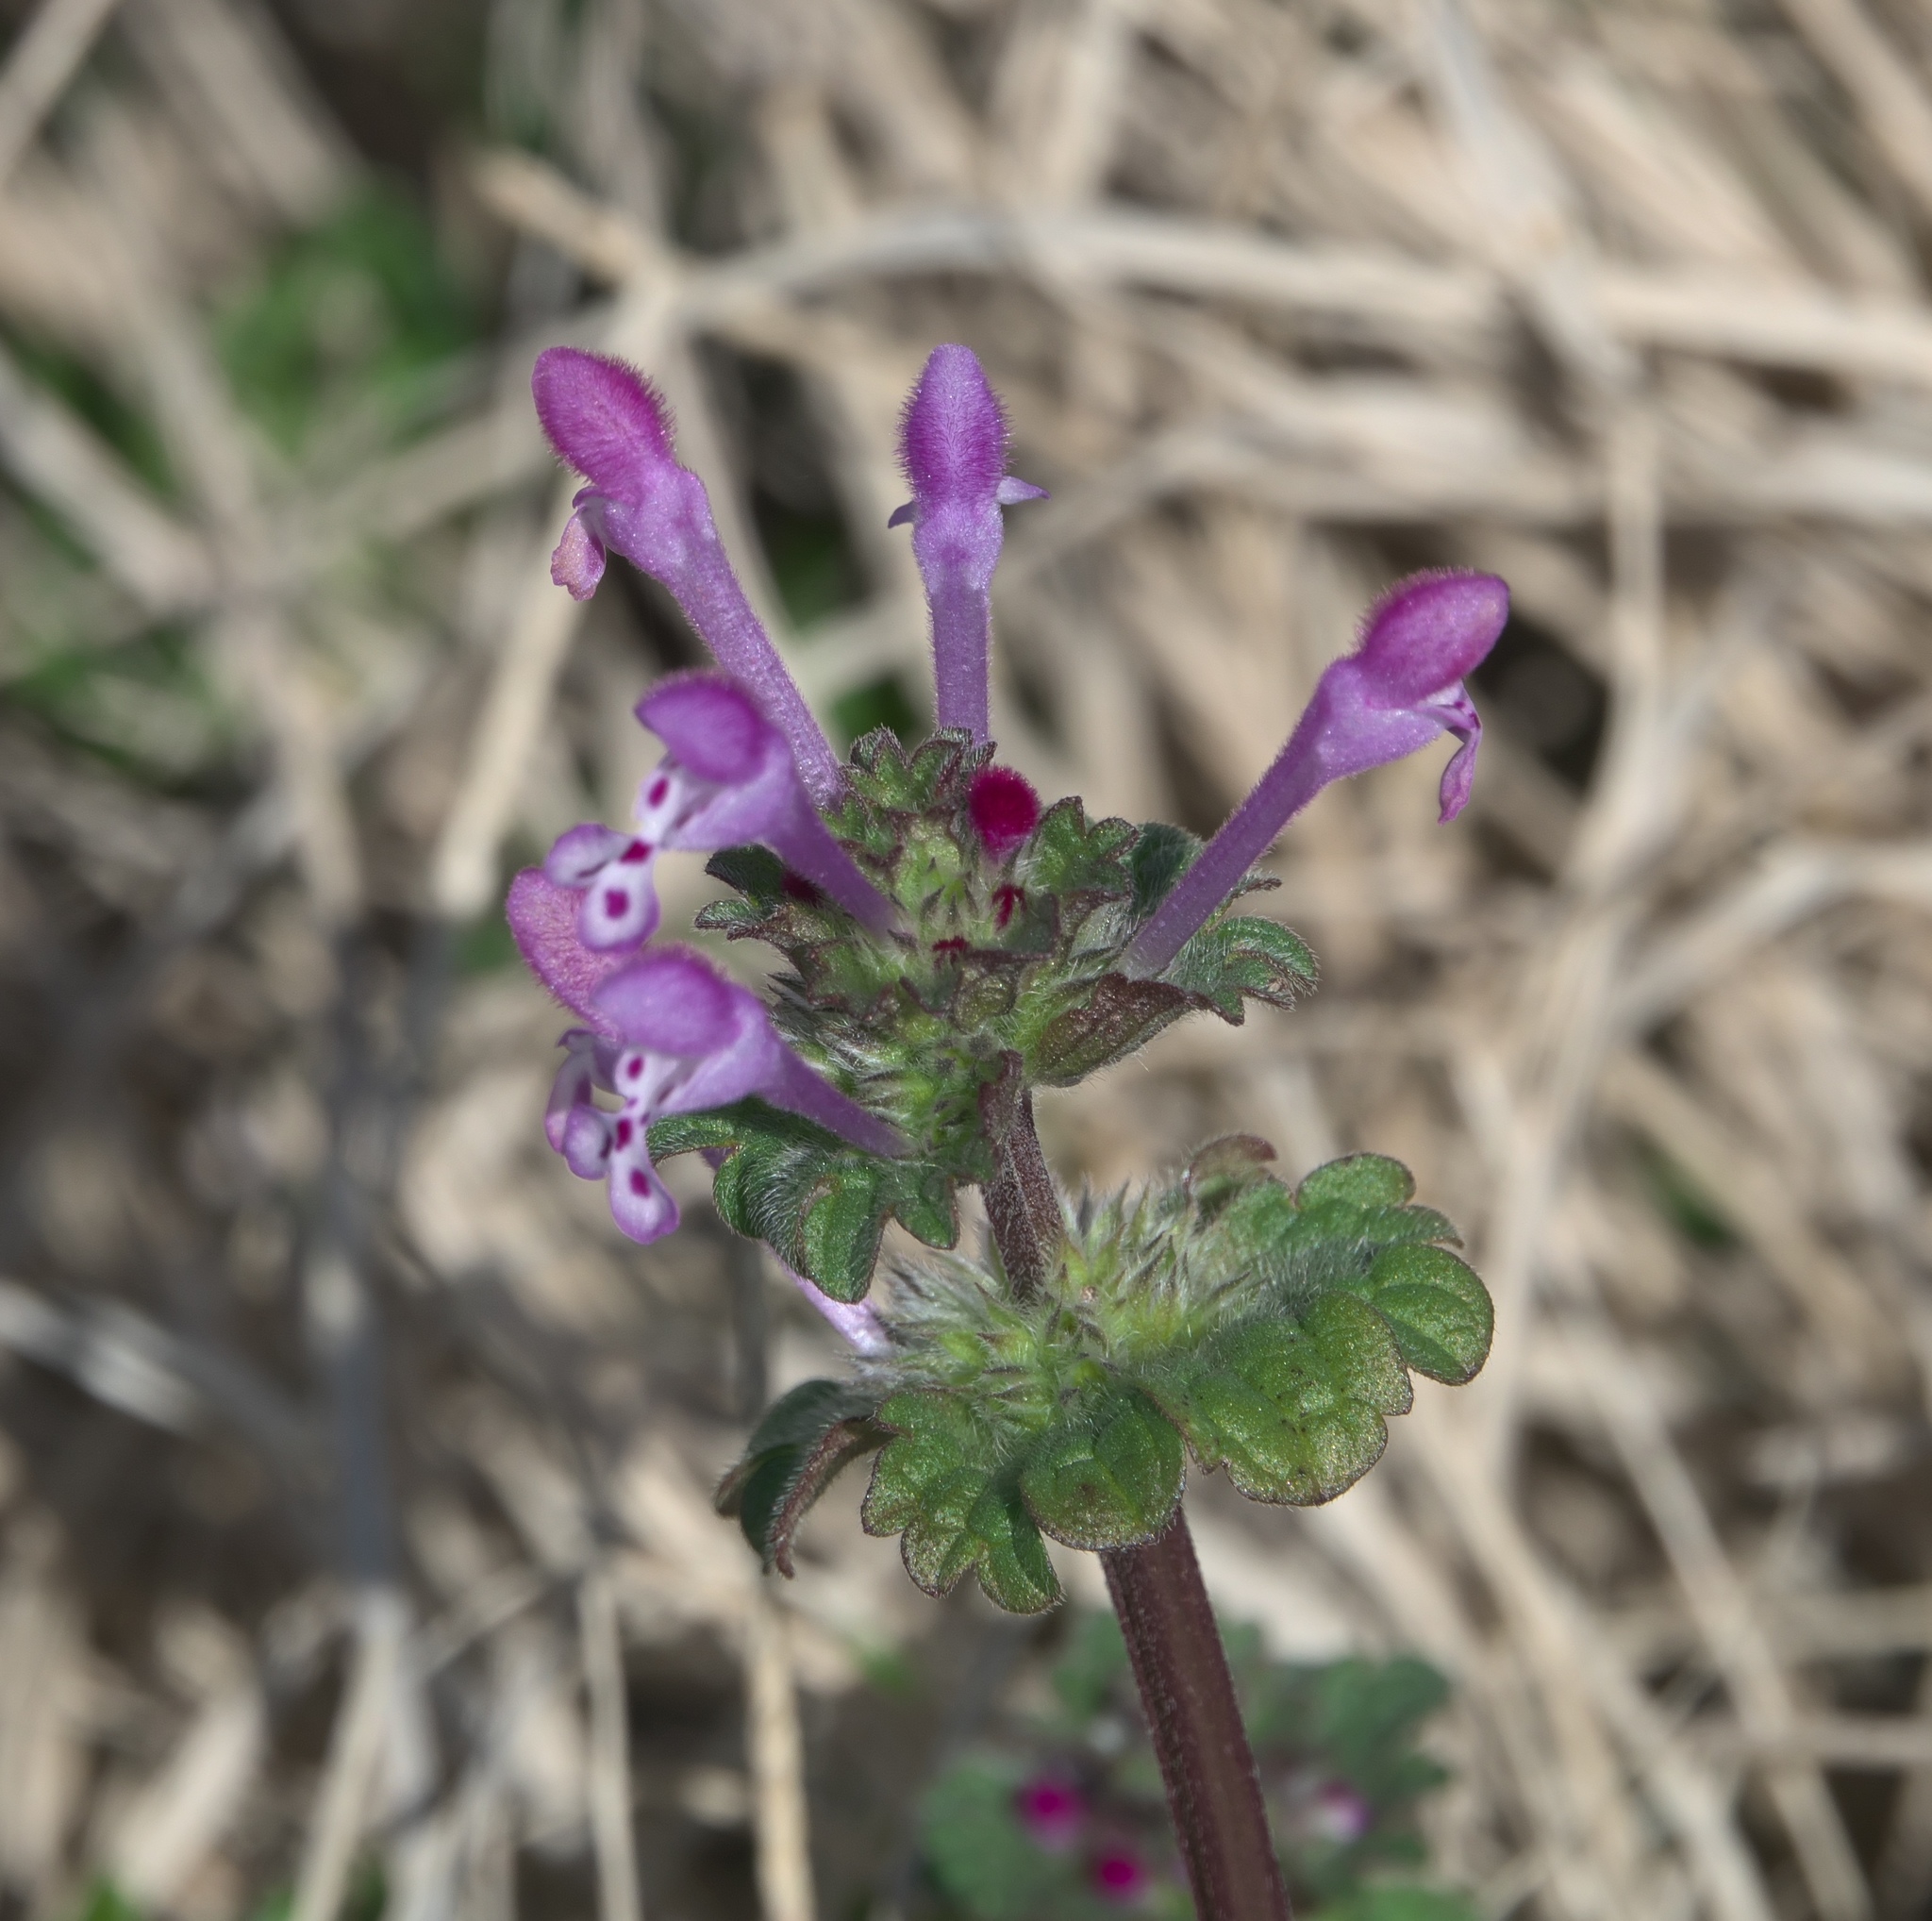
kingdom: Plantae
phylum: Tracheophyta
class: Magnoliopsida
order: Lamiales
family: Lamiaceae
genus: Lamium
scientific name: Lamium amplexicaule
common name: Henbit dead-nettle
